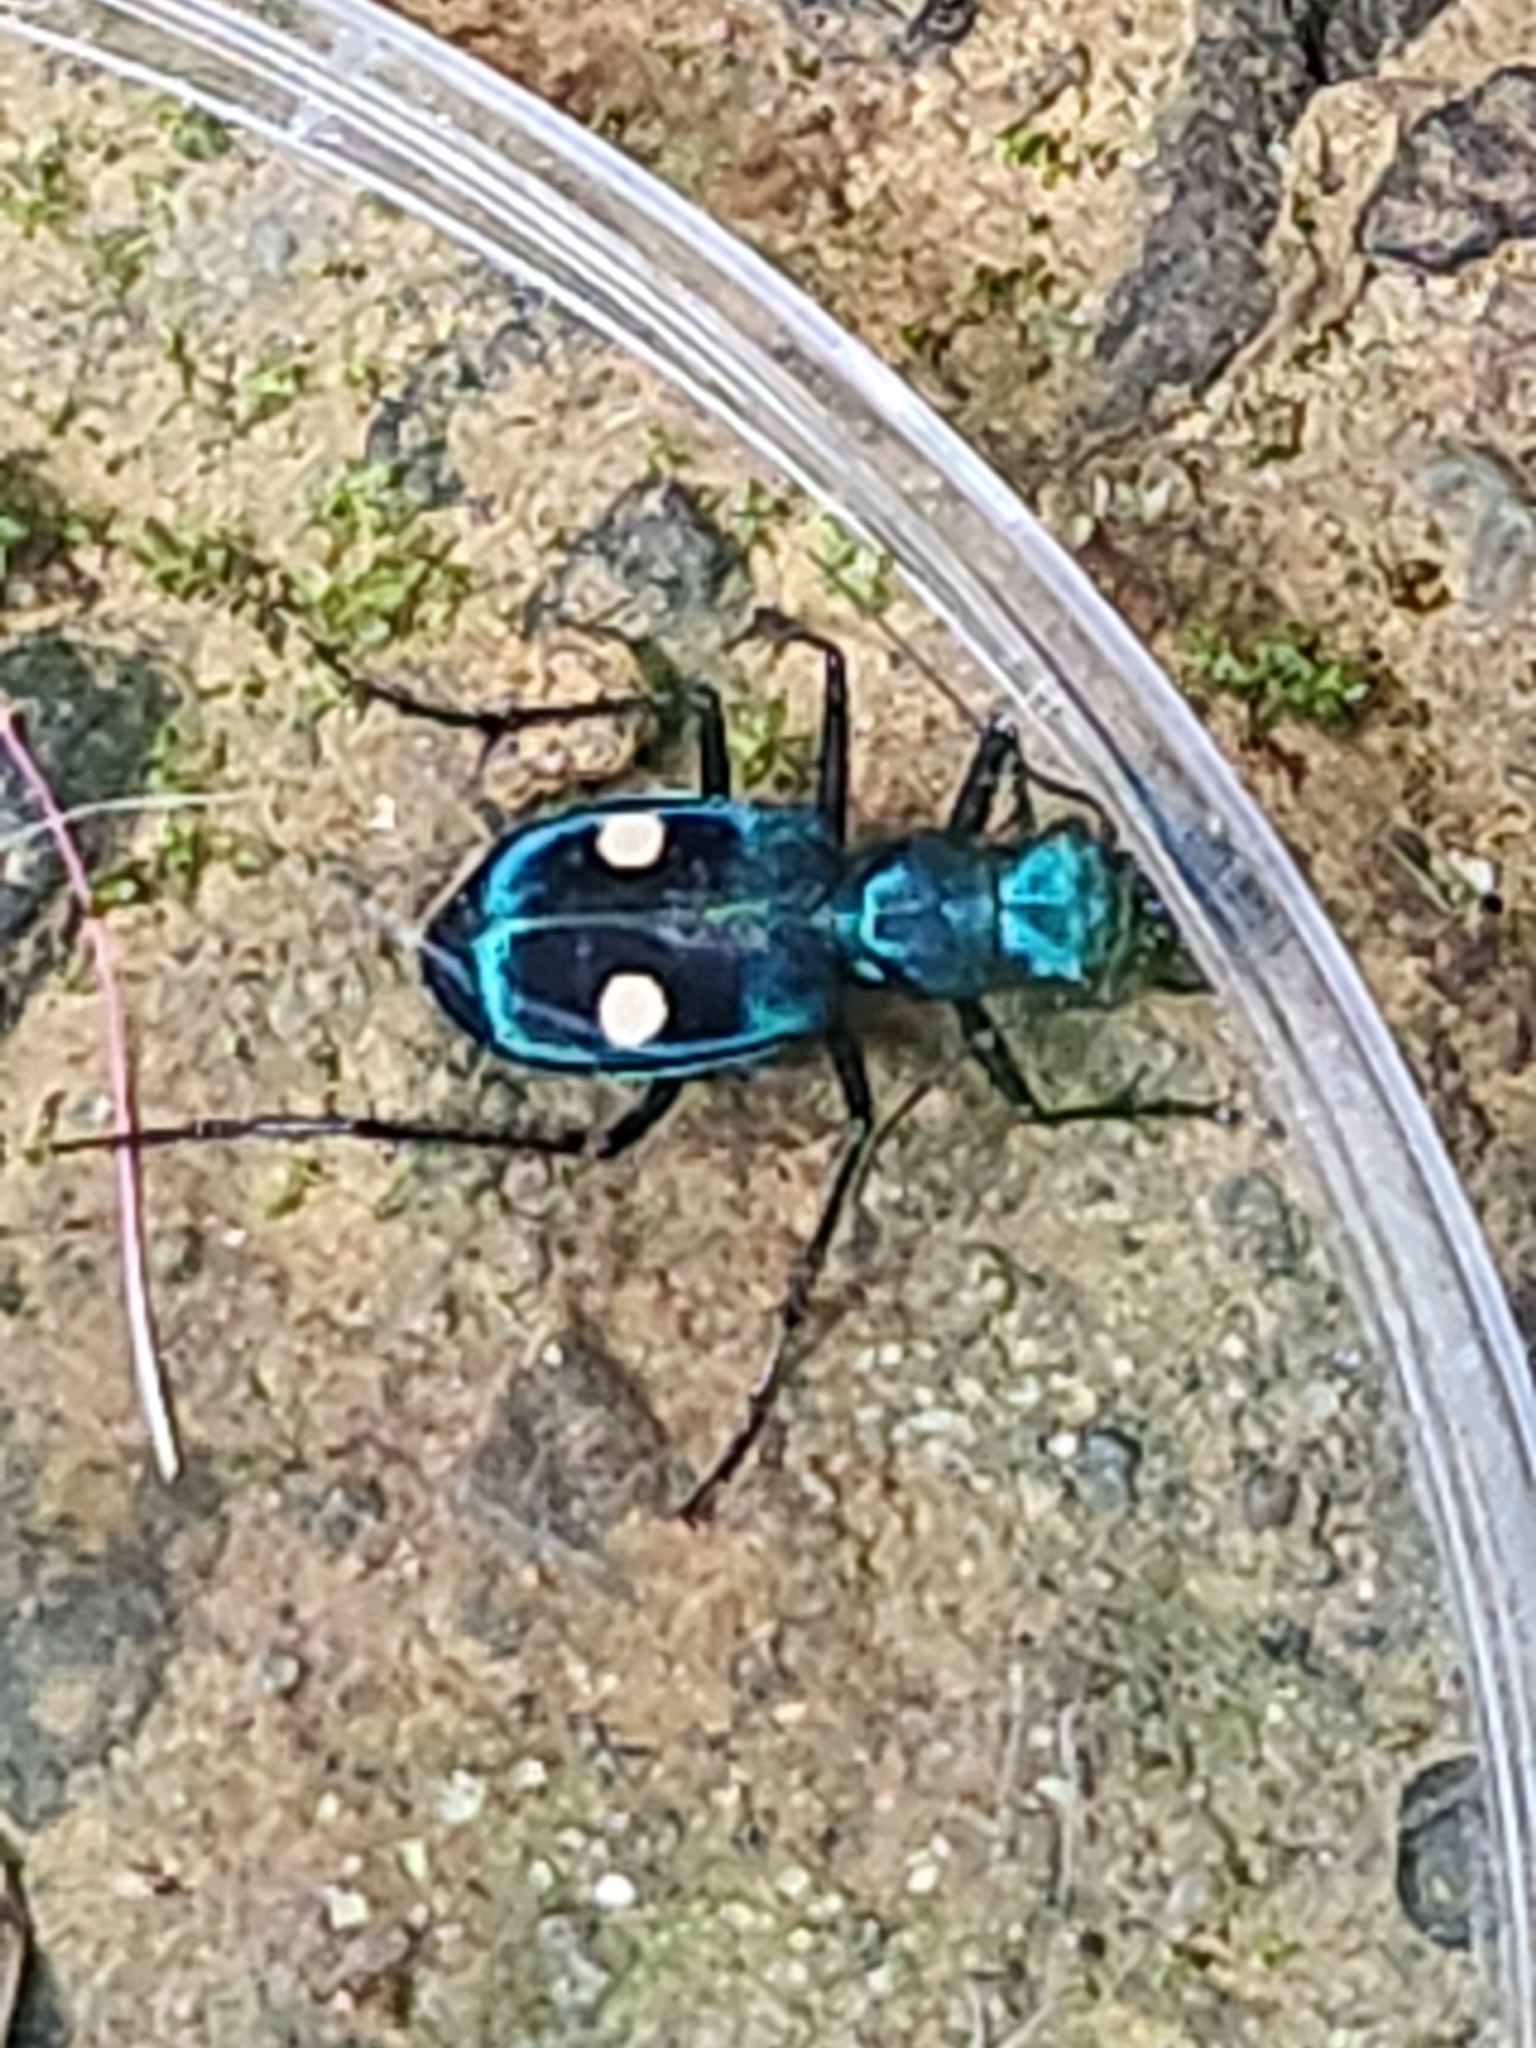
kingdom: Animalia
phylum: Arthropoda
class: Insecta
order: Coleoptera
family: Carabidae
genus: Pseudoxycheila
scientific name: Pseudoxycheila tarsalis
